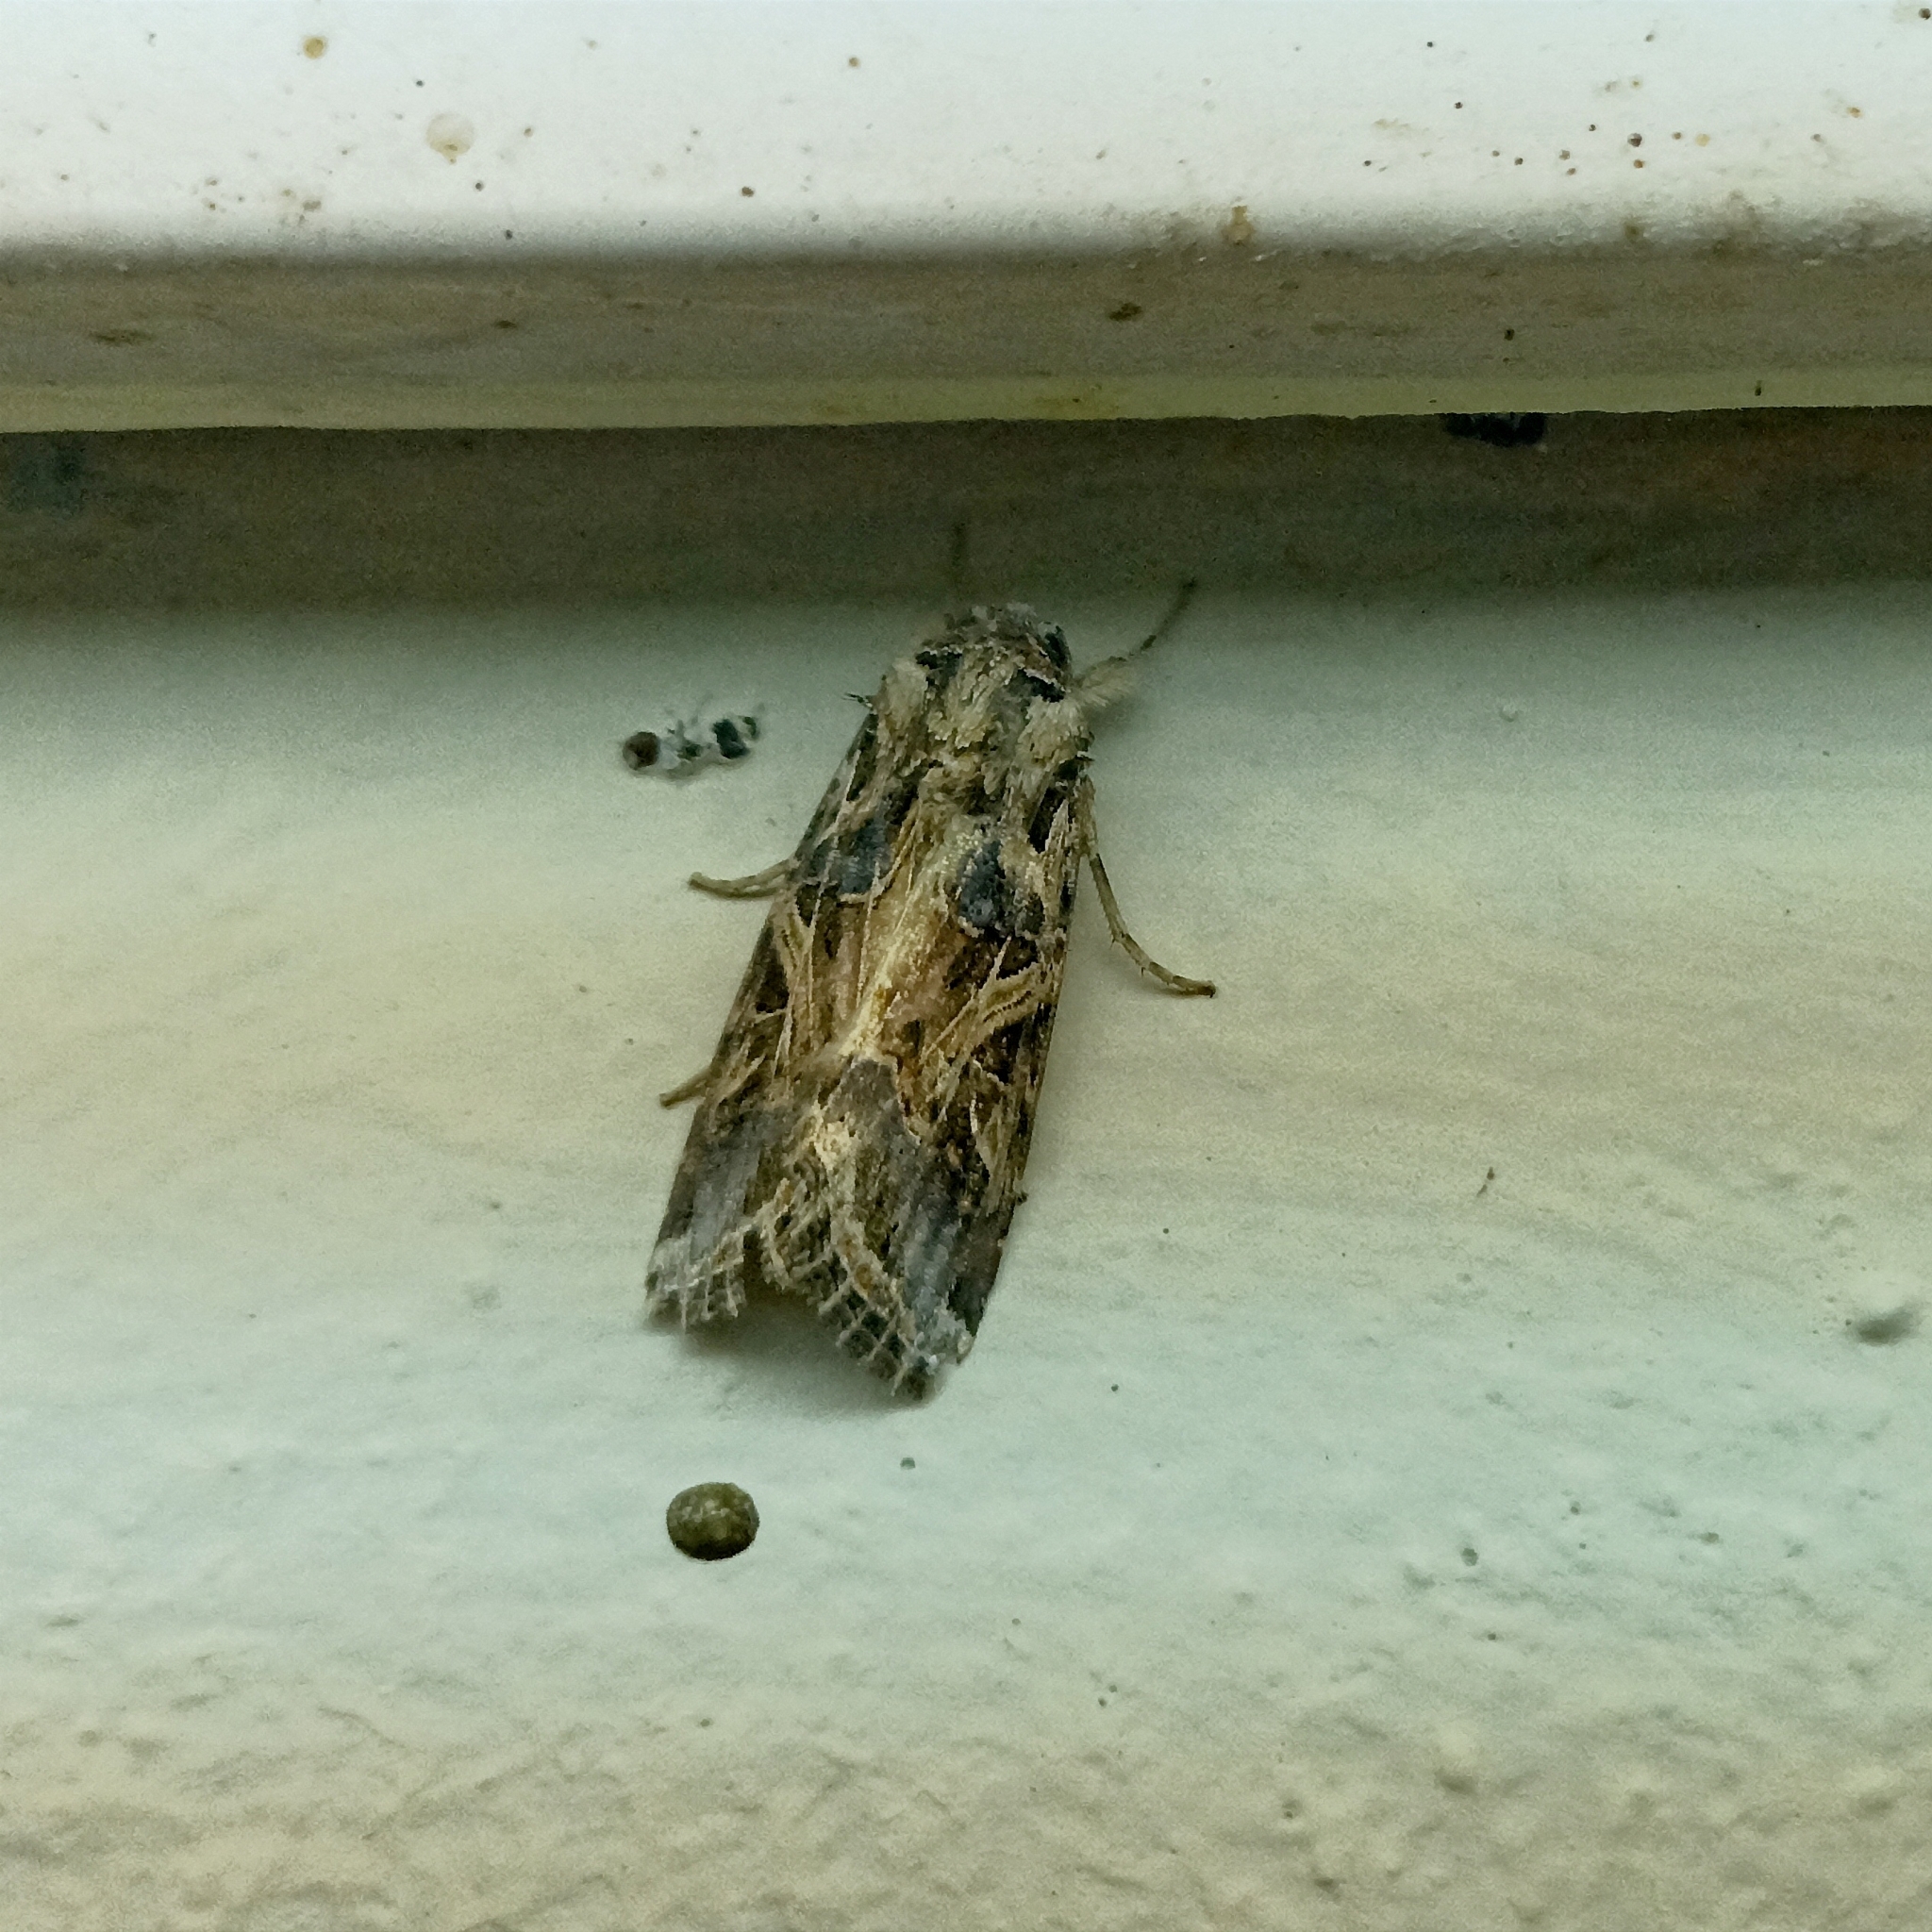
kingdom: Animalia
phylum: Arthropoda
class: Insecta
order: Lepidoptera
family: Noctuidae
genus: Spodoptera
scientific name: Spodoptera litura
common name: Asian cotton leafworm
